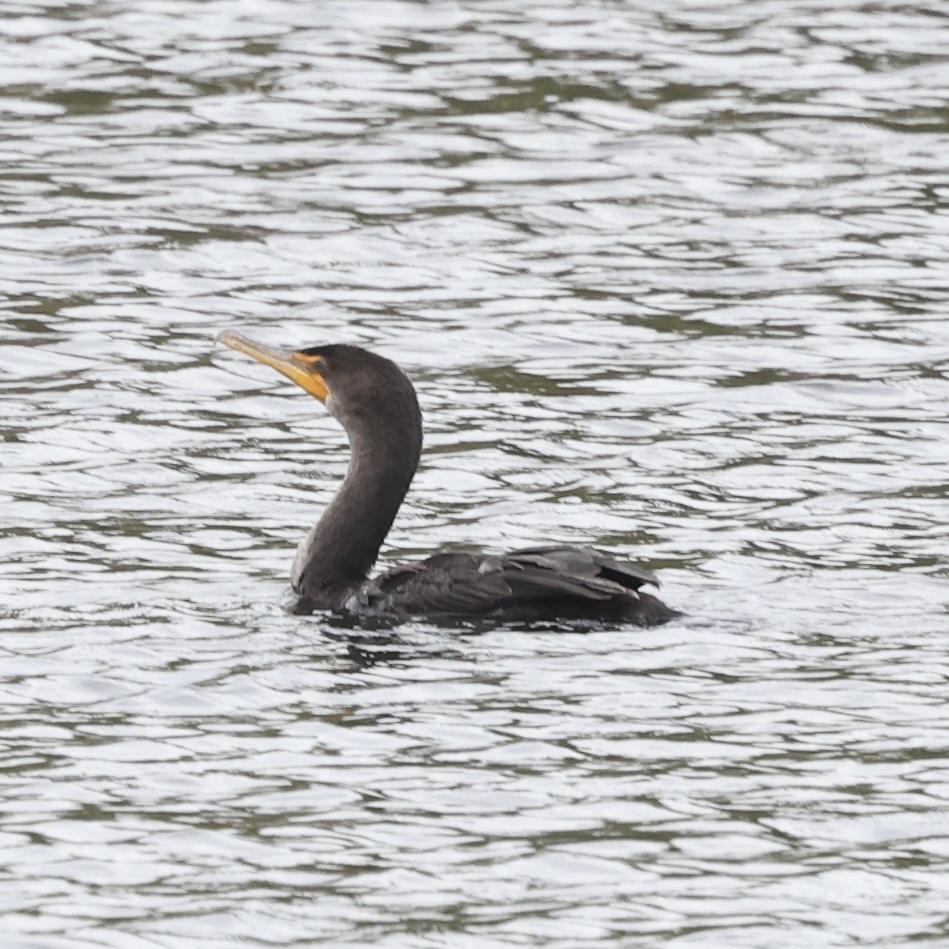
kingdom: Animalia
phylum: Chordata
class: Aves
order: Suliformes
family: Phalacrocoracidae
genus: Phalacrocorax
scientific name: Phalacrocorax auritus
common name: Double-crested cormorant
